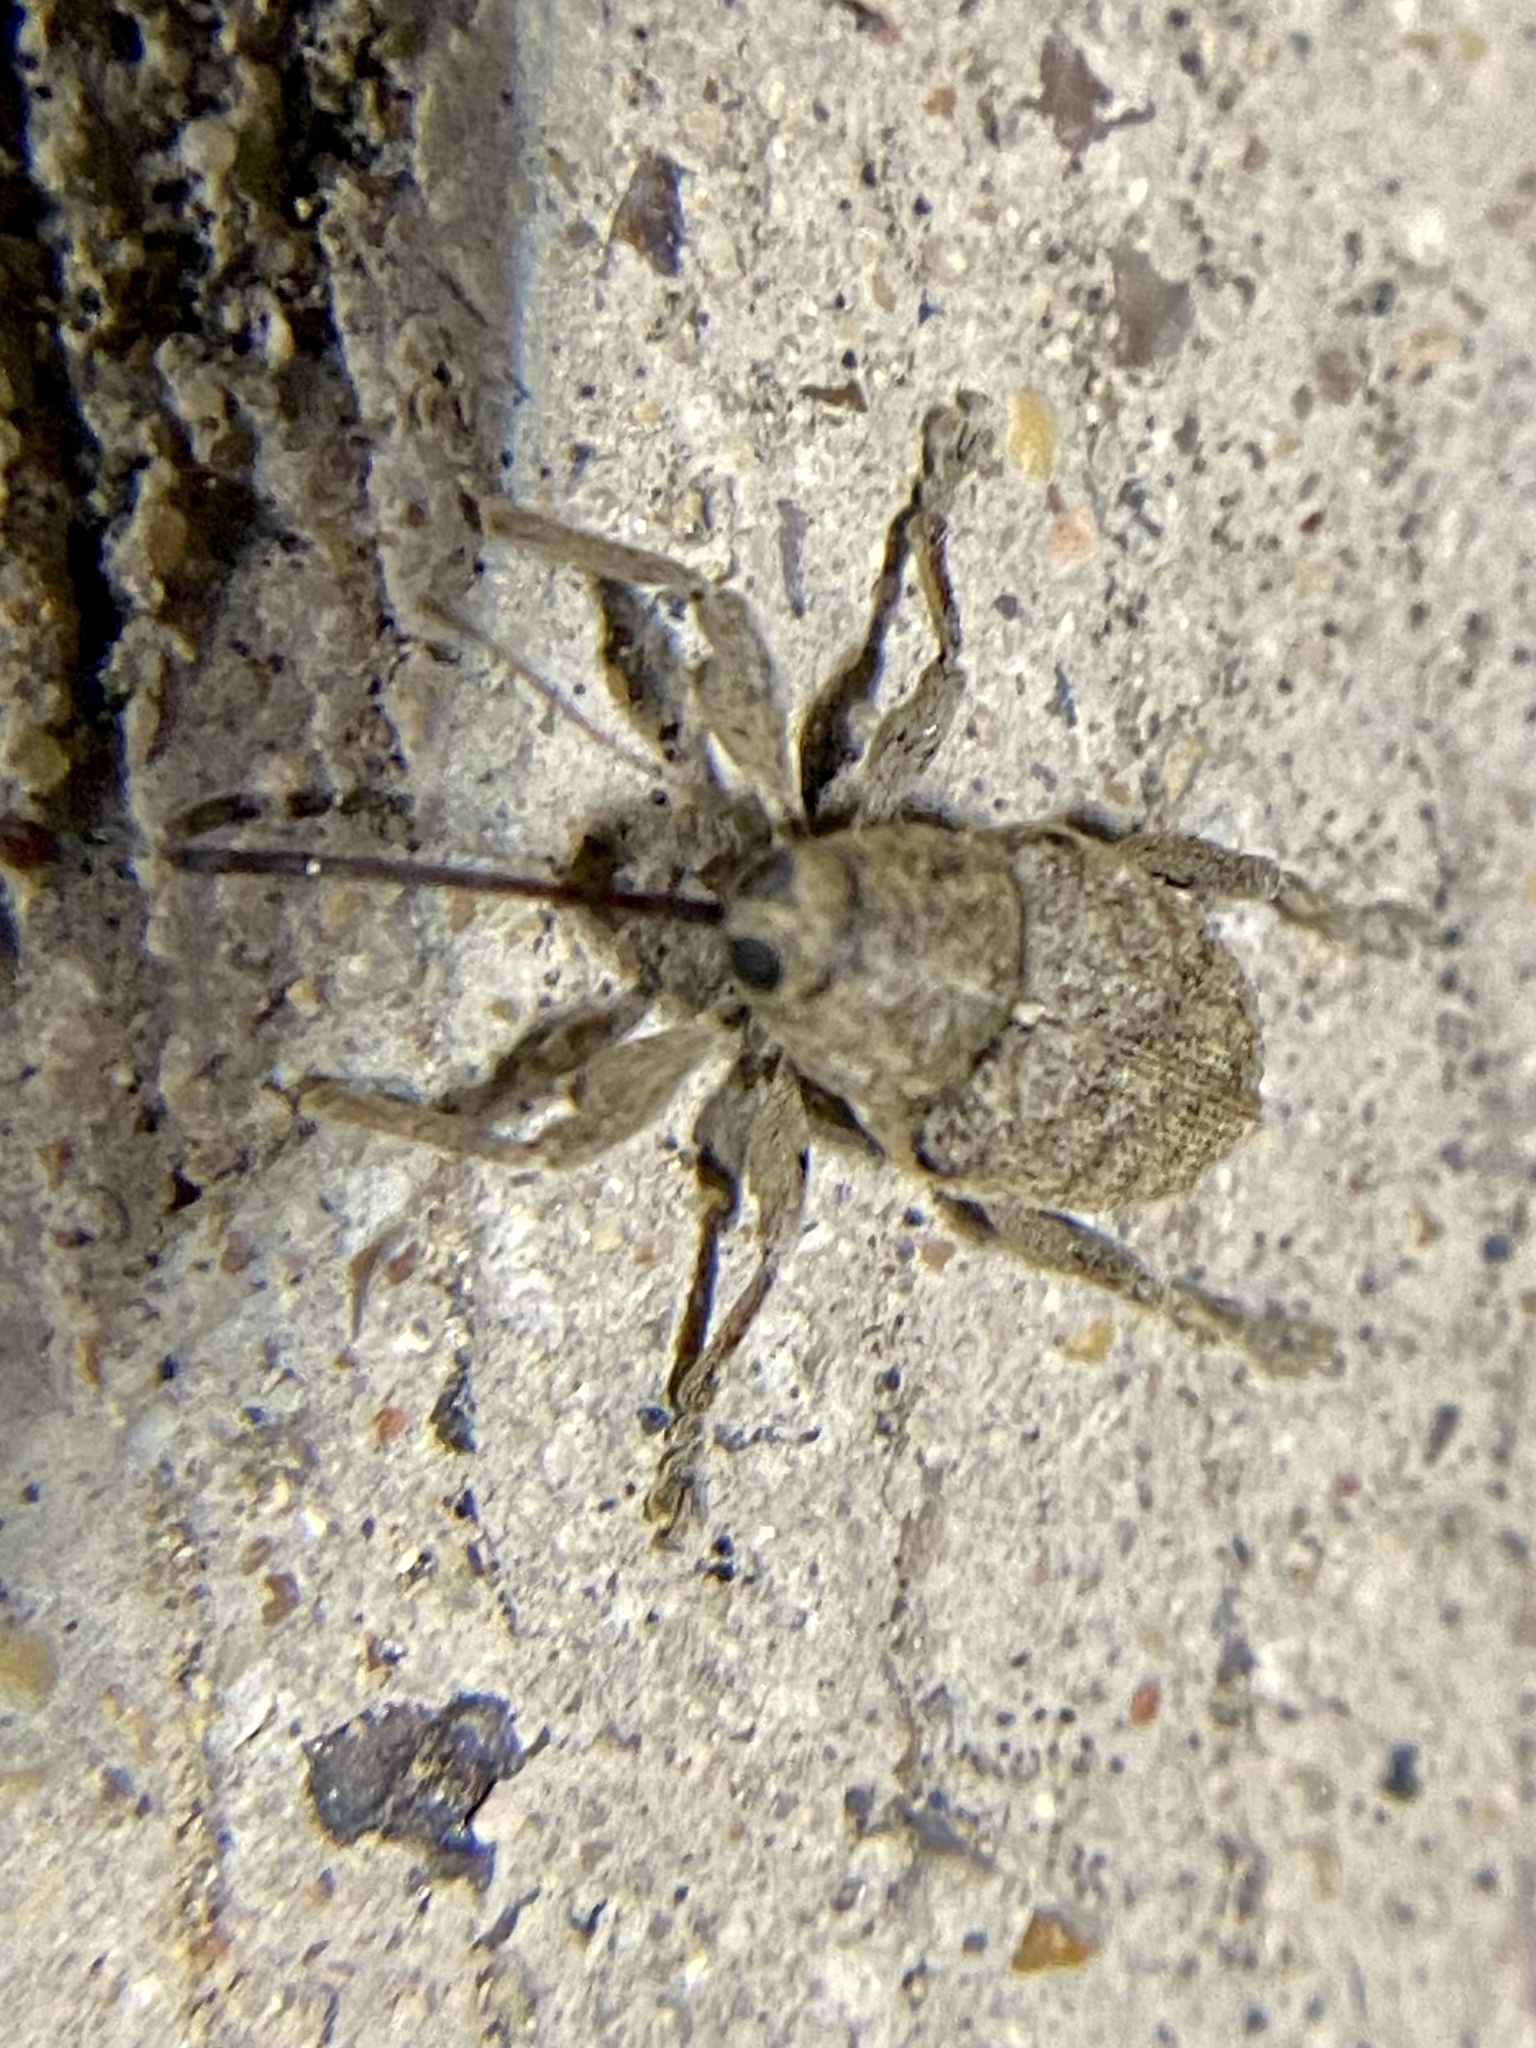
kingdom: Animalia
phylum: Arthropoda
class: Insecta
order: Coleoptera
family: Curculionidae
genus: Curculio
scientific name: Curculio
